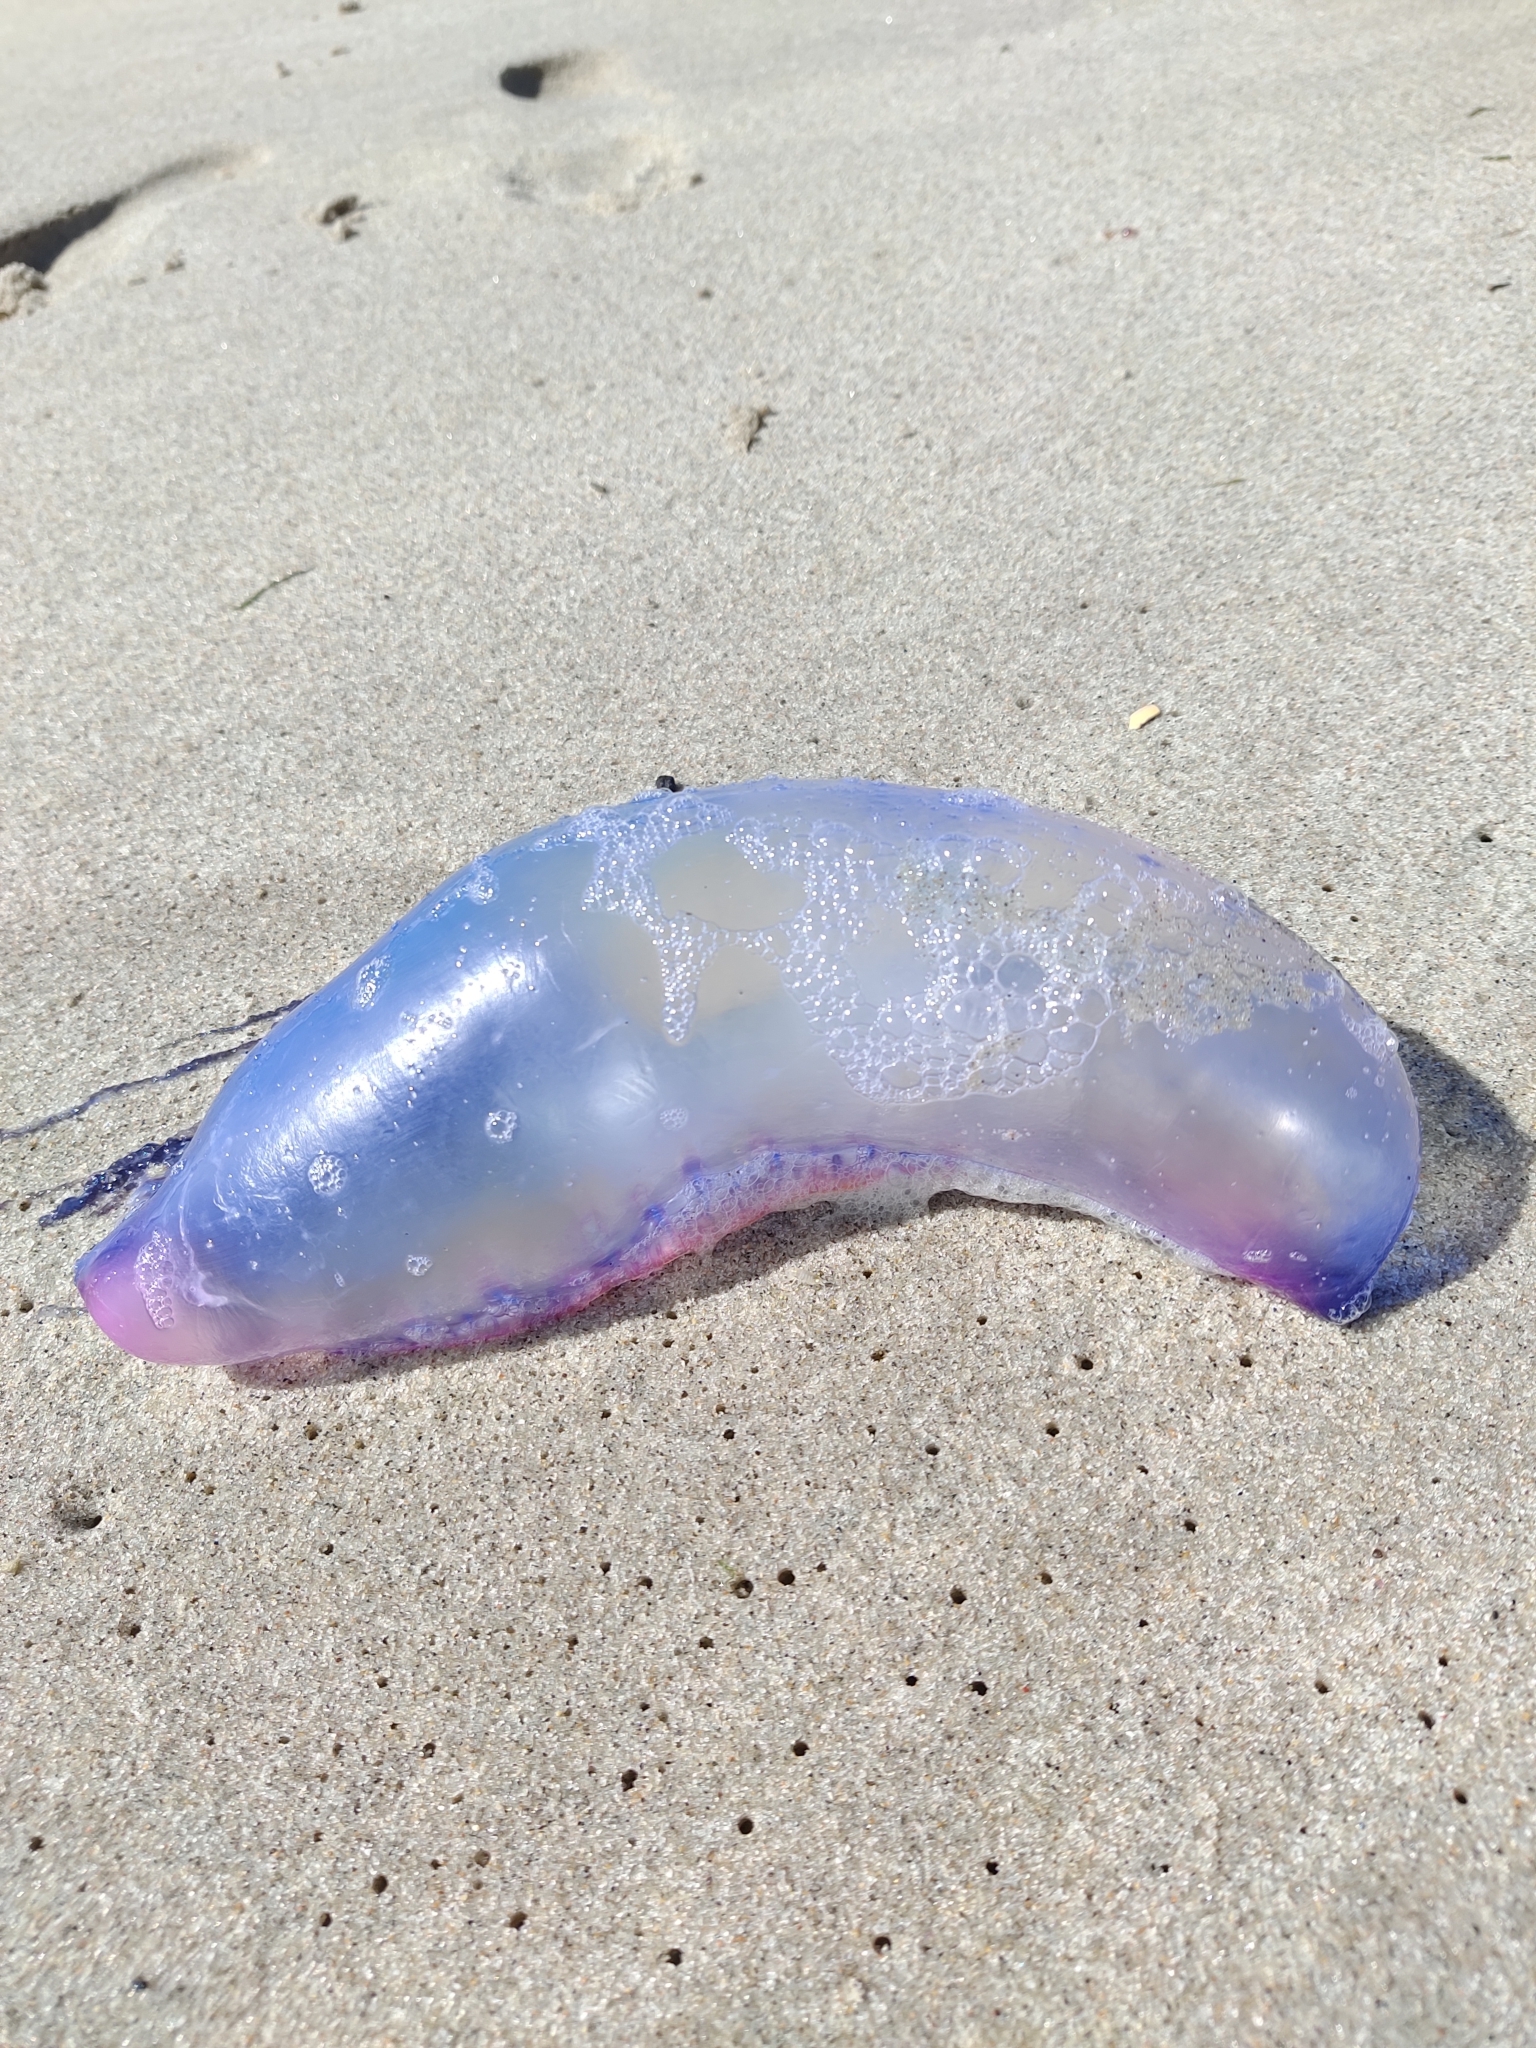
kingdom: Animalia
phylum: Cnidaria
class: Hydrozoa
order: Siphonophorae
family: Physaliidae
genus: Physalia
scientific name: Physalia physalis
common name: Portuguese man-of-war
